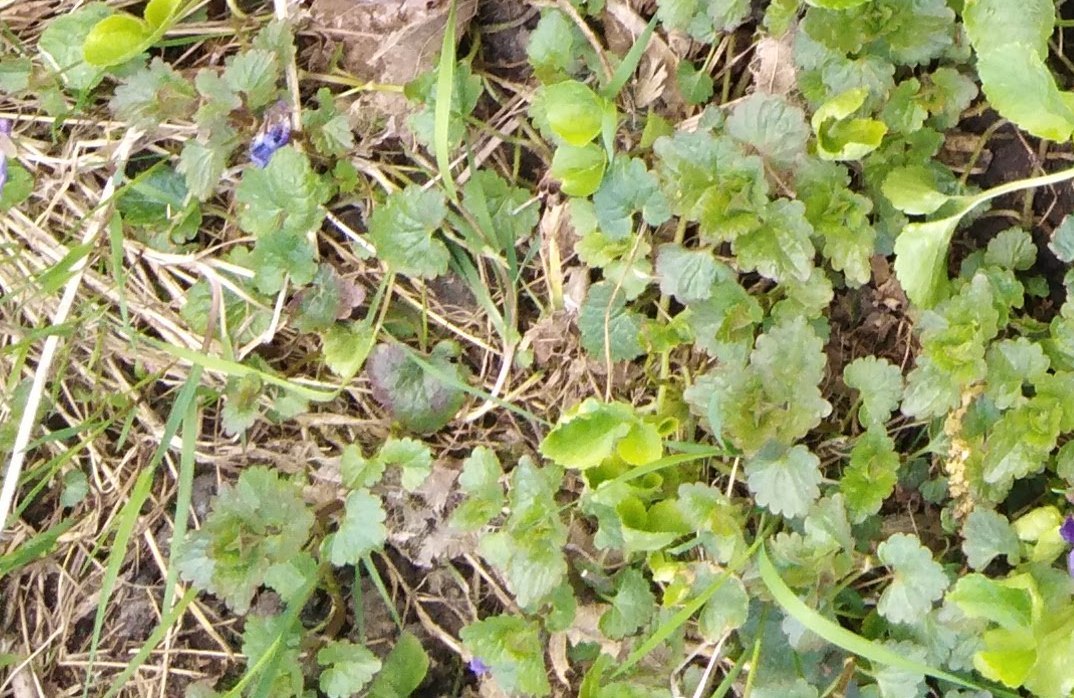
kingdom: Plantae
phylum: Tracheophyta
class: Magnoliopsida
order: Lamiales
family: Lamiaceae
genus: Glechoma
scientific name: Glechoma hederacea
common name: Ground ivy
